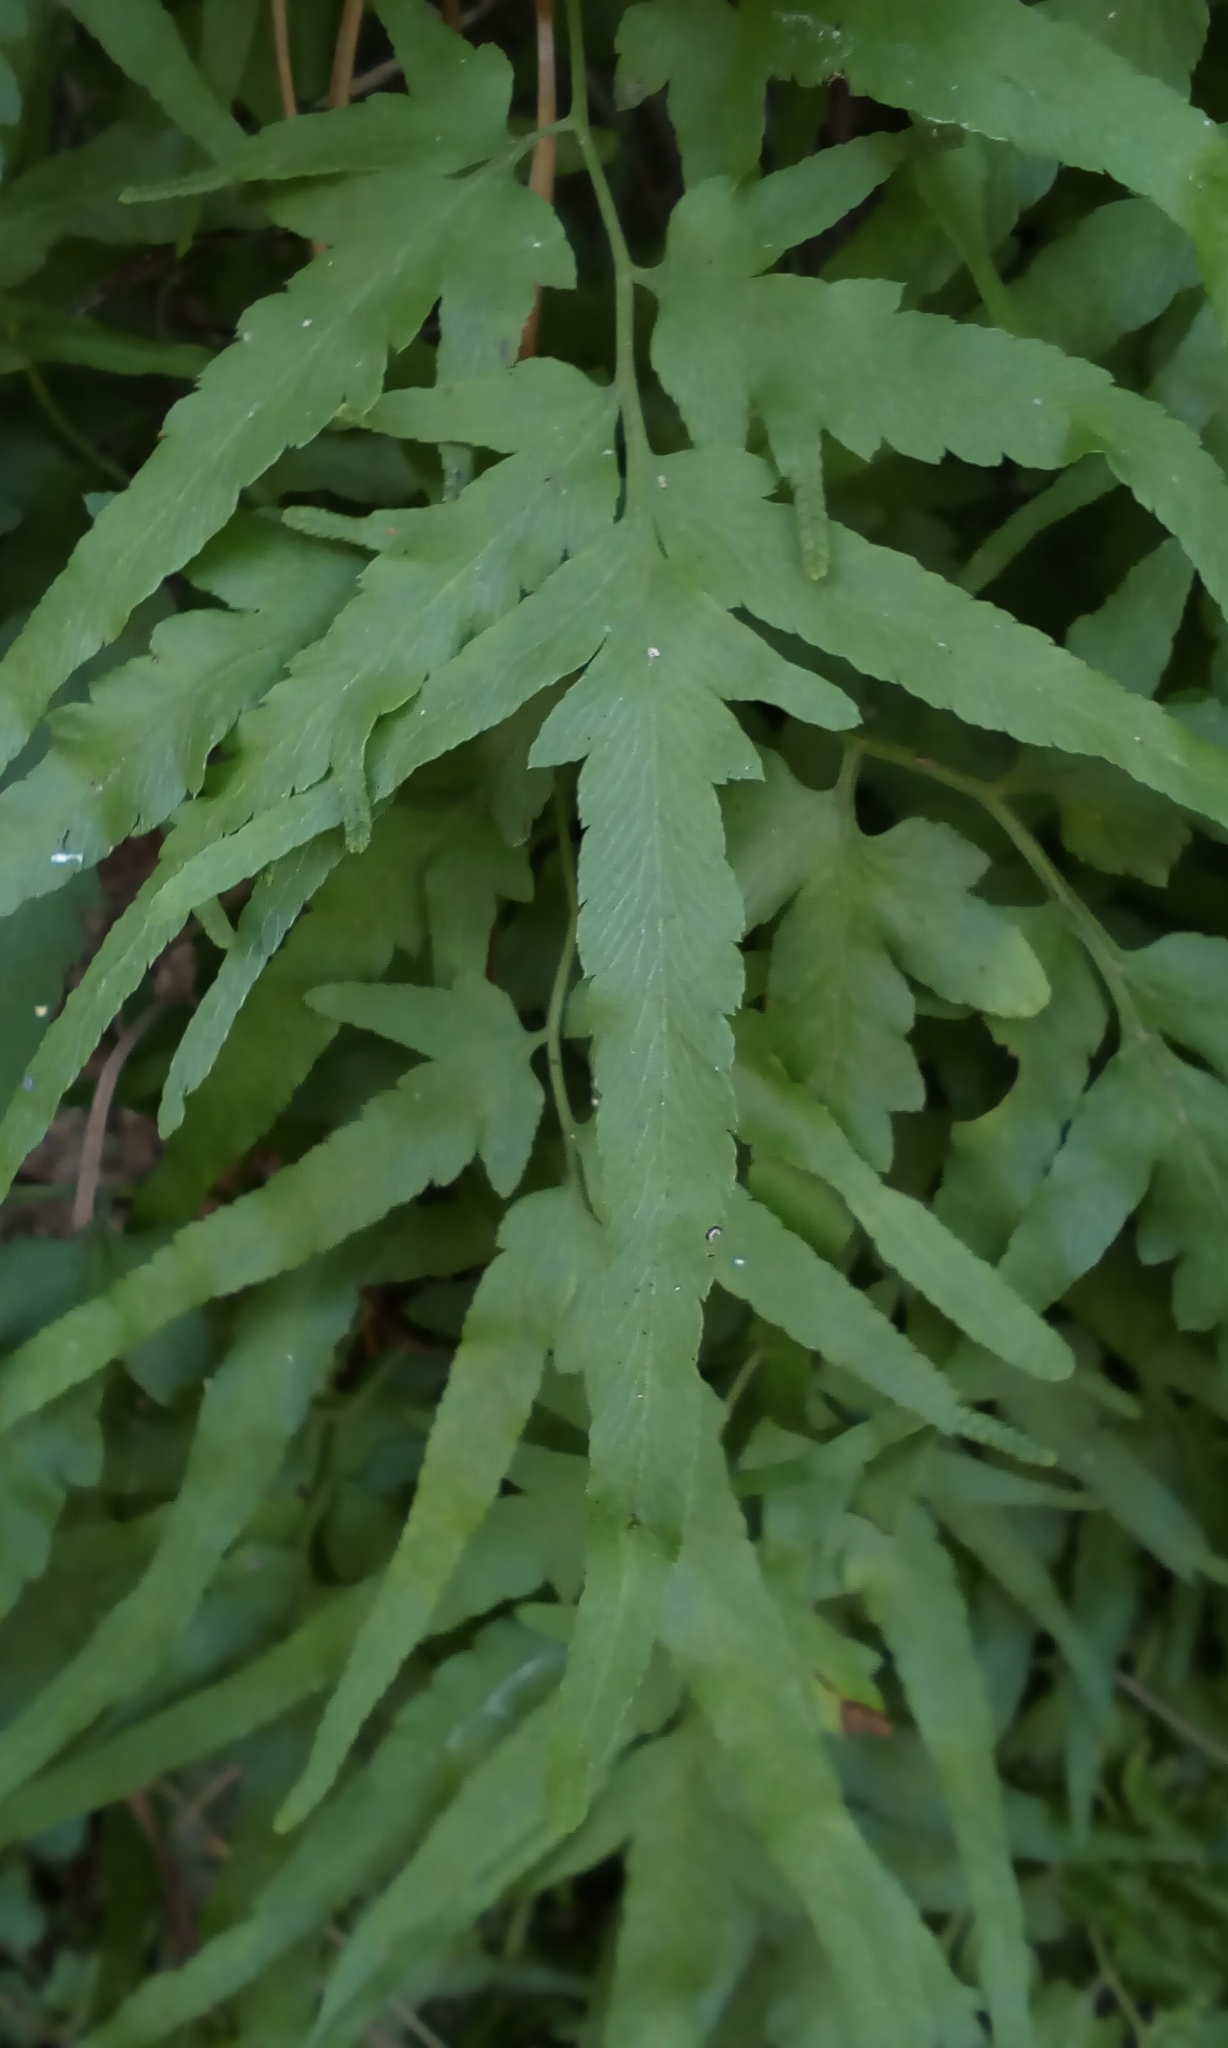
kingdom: Plantae
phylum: Tracheophyta
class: Polypodiopsida
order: Schizaeales
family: Lygodiaceae
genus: Lygodium
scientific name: Lygodium japonicum
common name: Japanese climbing fern
